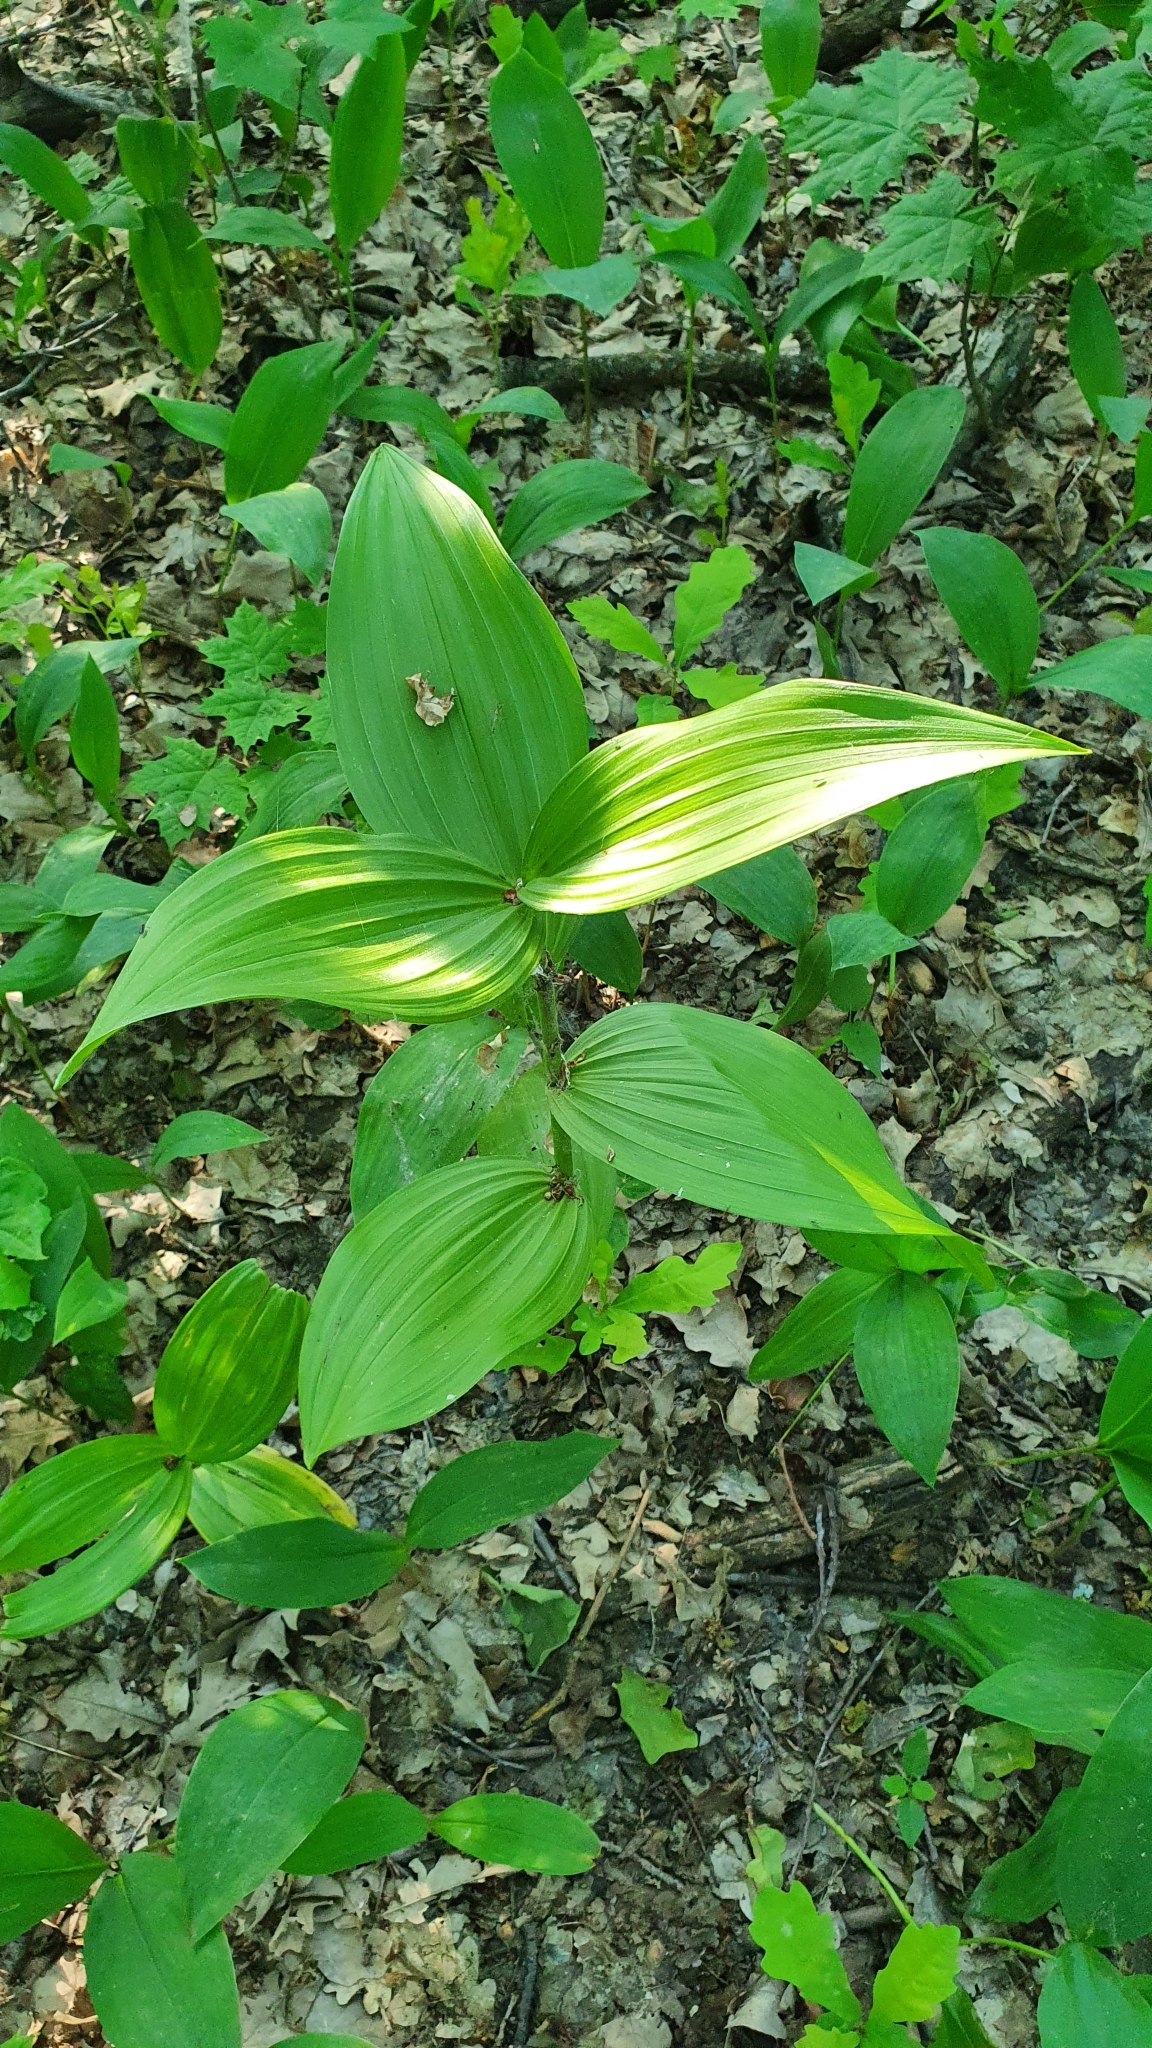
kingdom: Plantae
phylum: Tracheophyta
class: Liliopsida
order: Liliales
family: Melanthiaceae
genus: Veratrum
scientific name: Veratrum lobelianum
